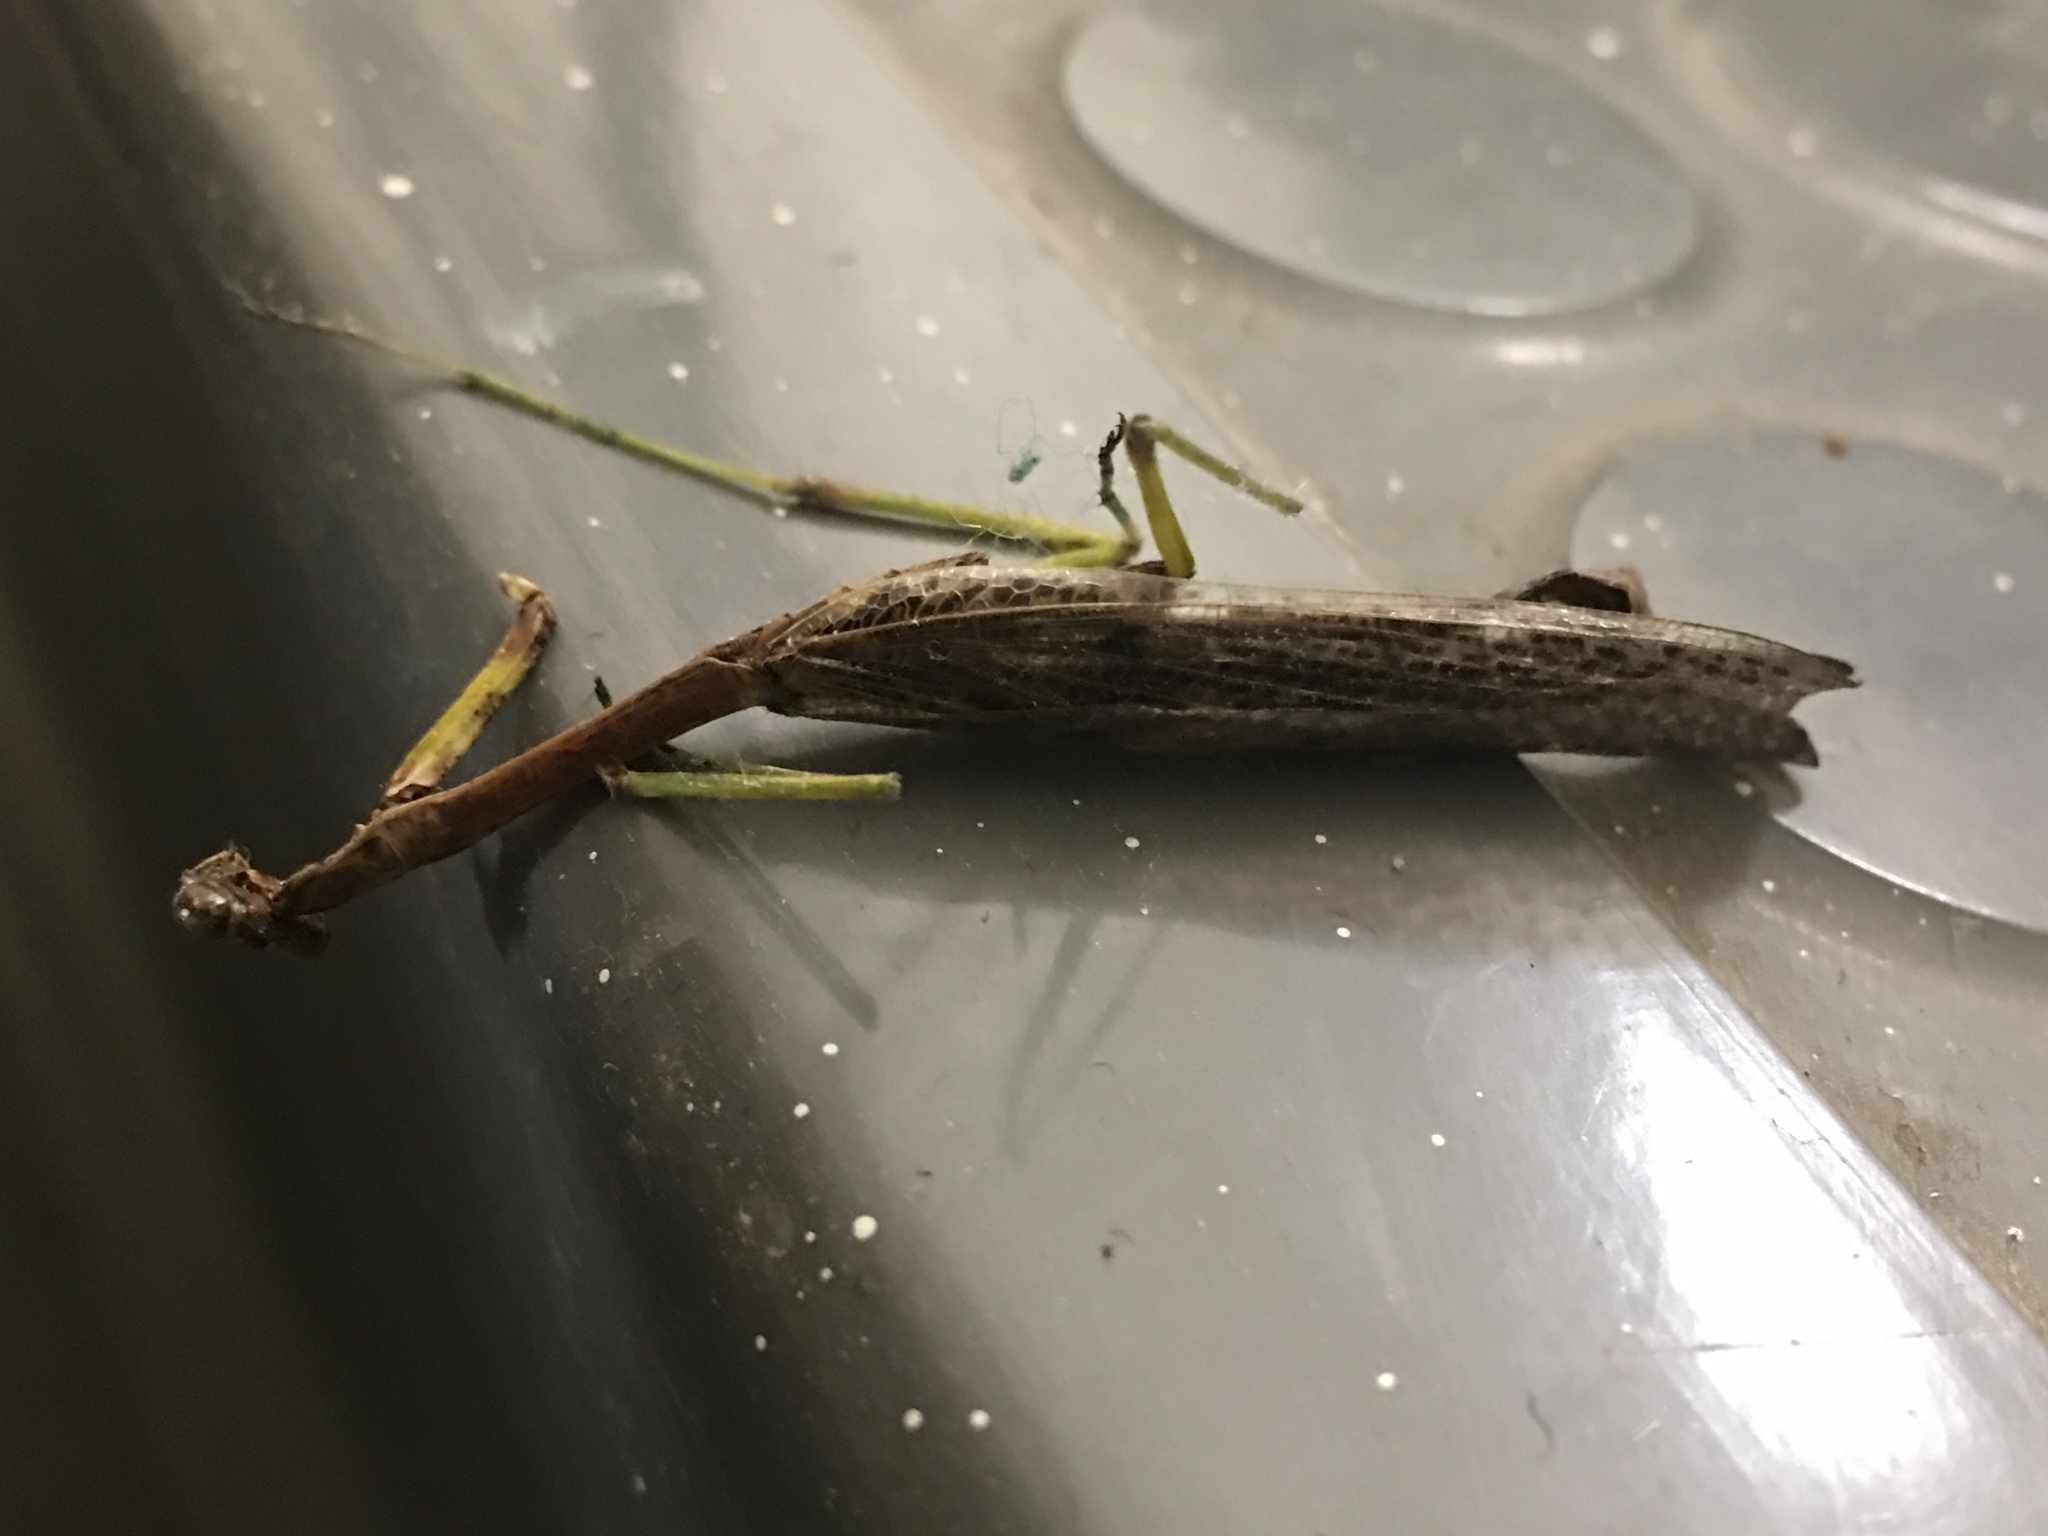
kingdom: Animalia
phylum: Arthropoda
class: Insecta
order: Mantodea
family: Mantidae
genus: Stagmomantis
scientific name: Stagmomantis carolina
